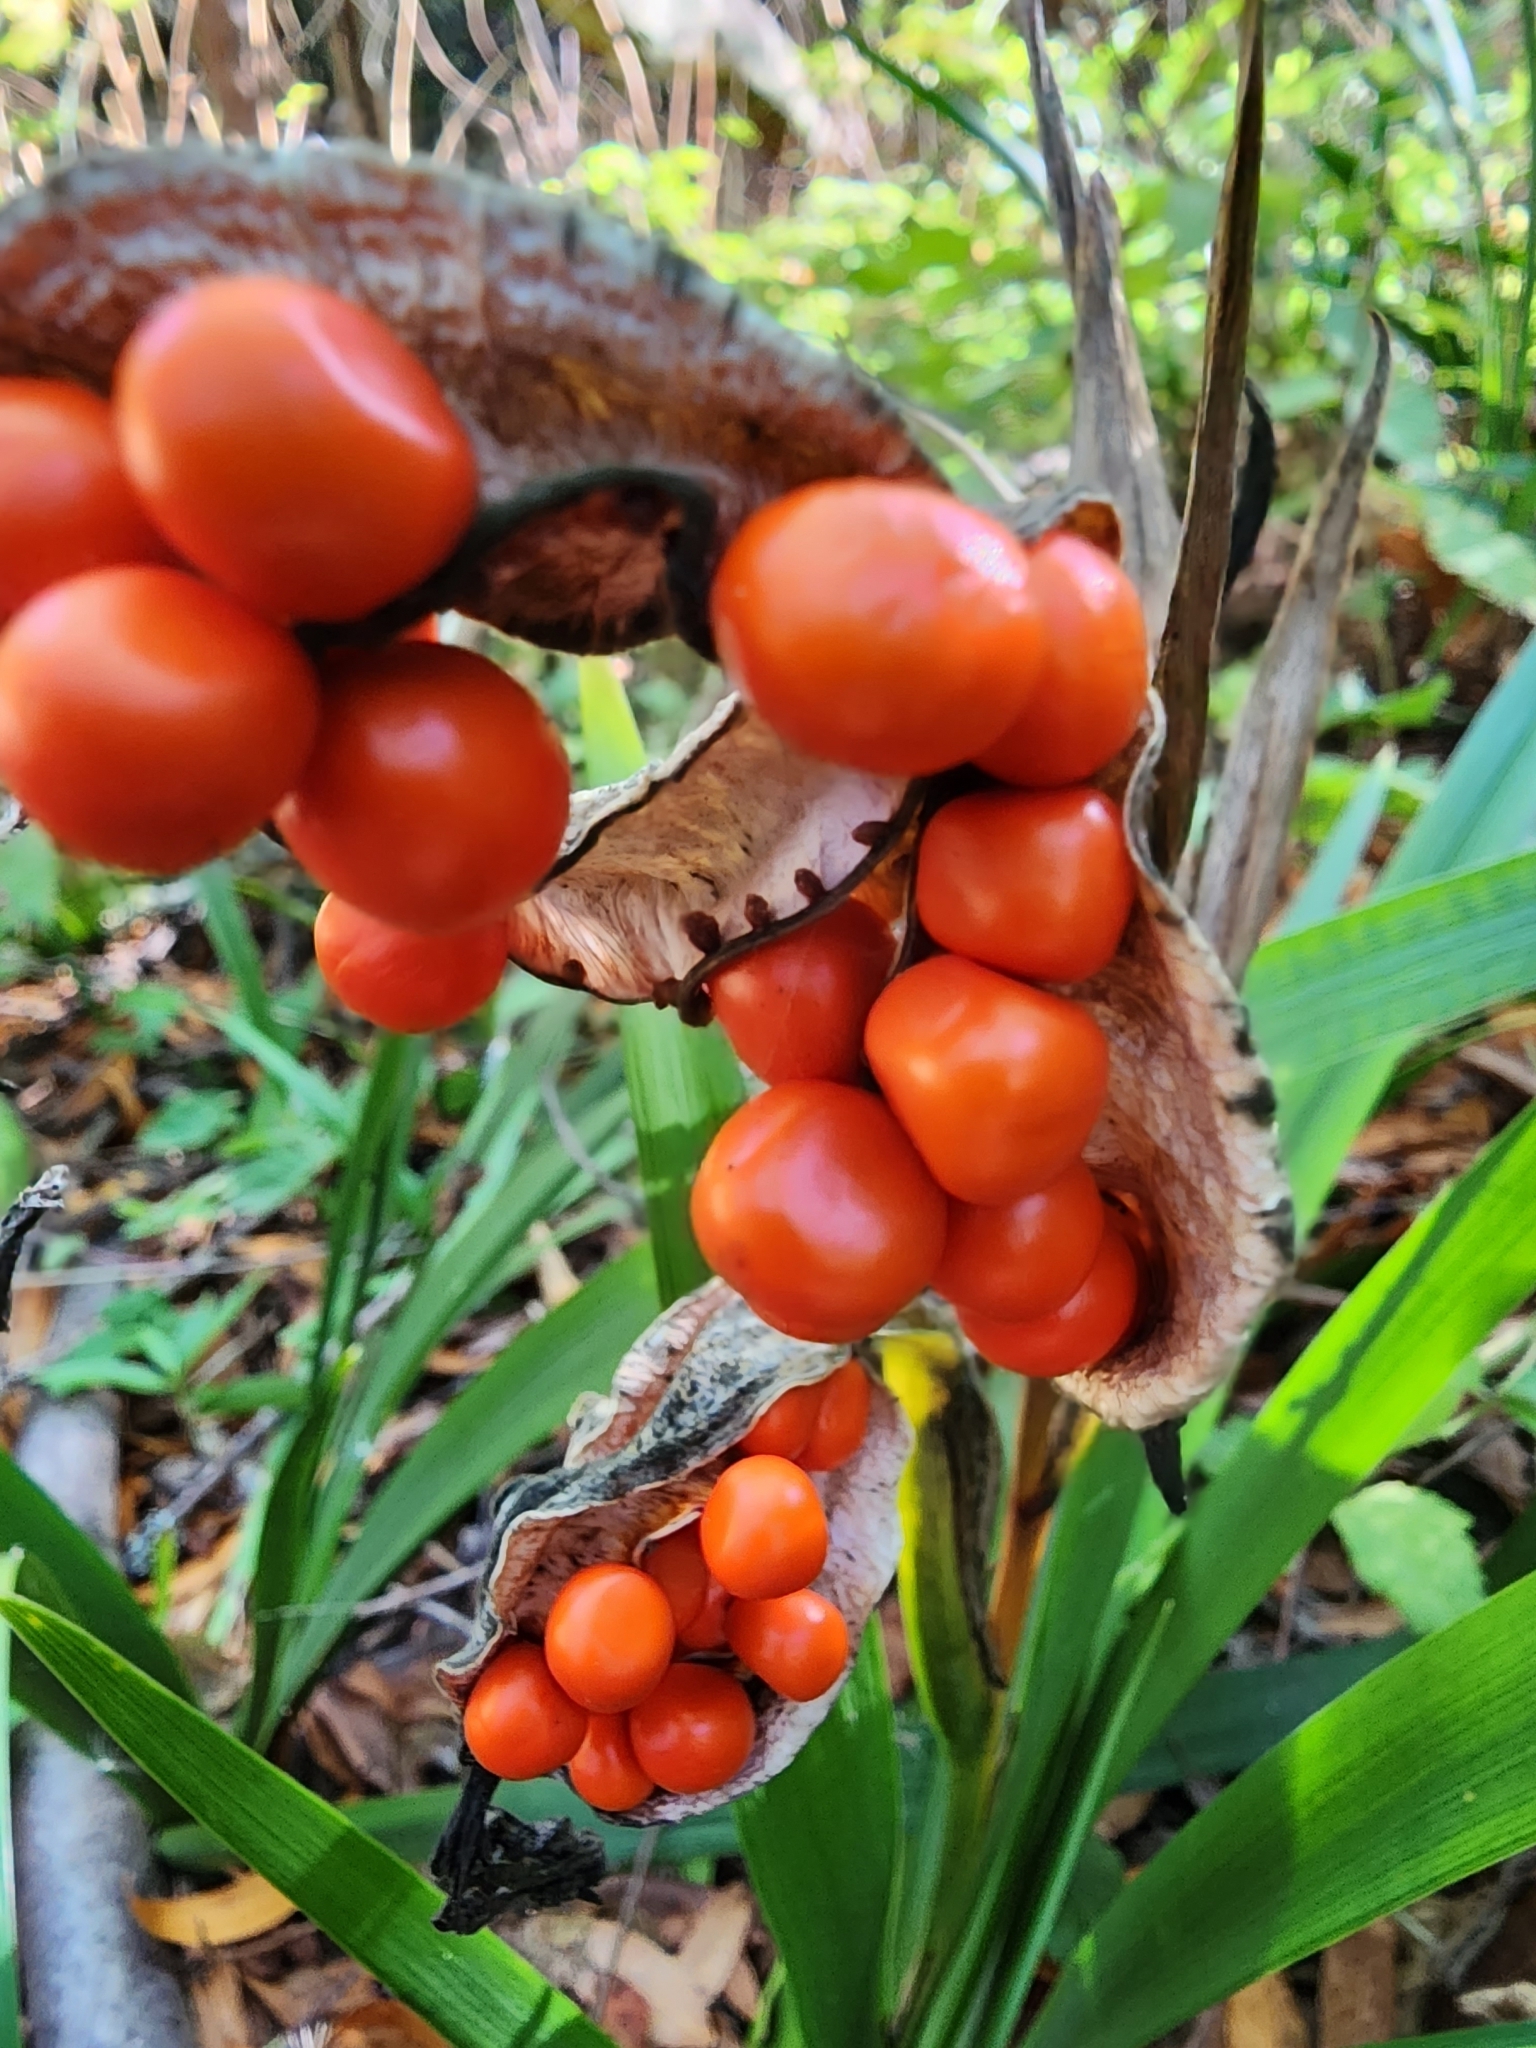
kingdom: Plantae
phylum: Tracheophyta
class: Liliopsida
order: Asparagales
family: Iridaceae
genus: Iris
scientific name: Iris foetidissima
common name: Stinking iris
